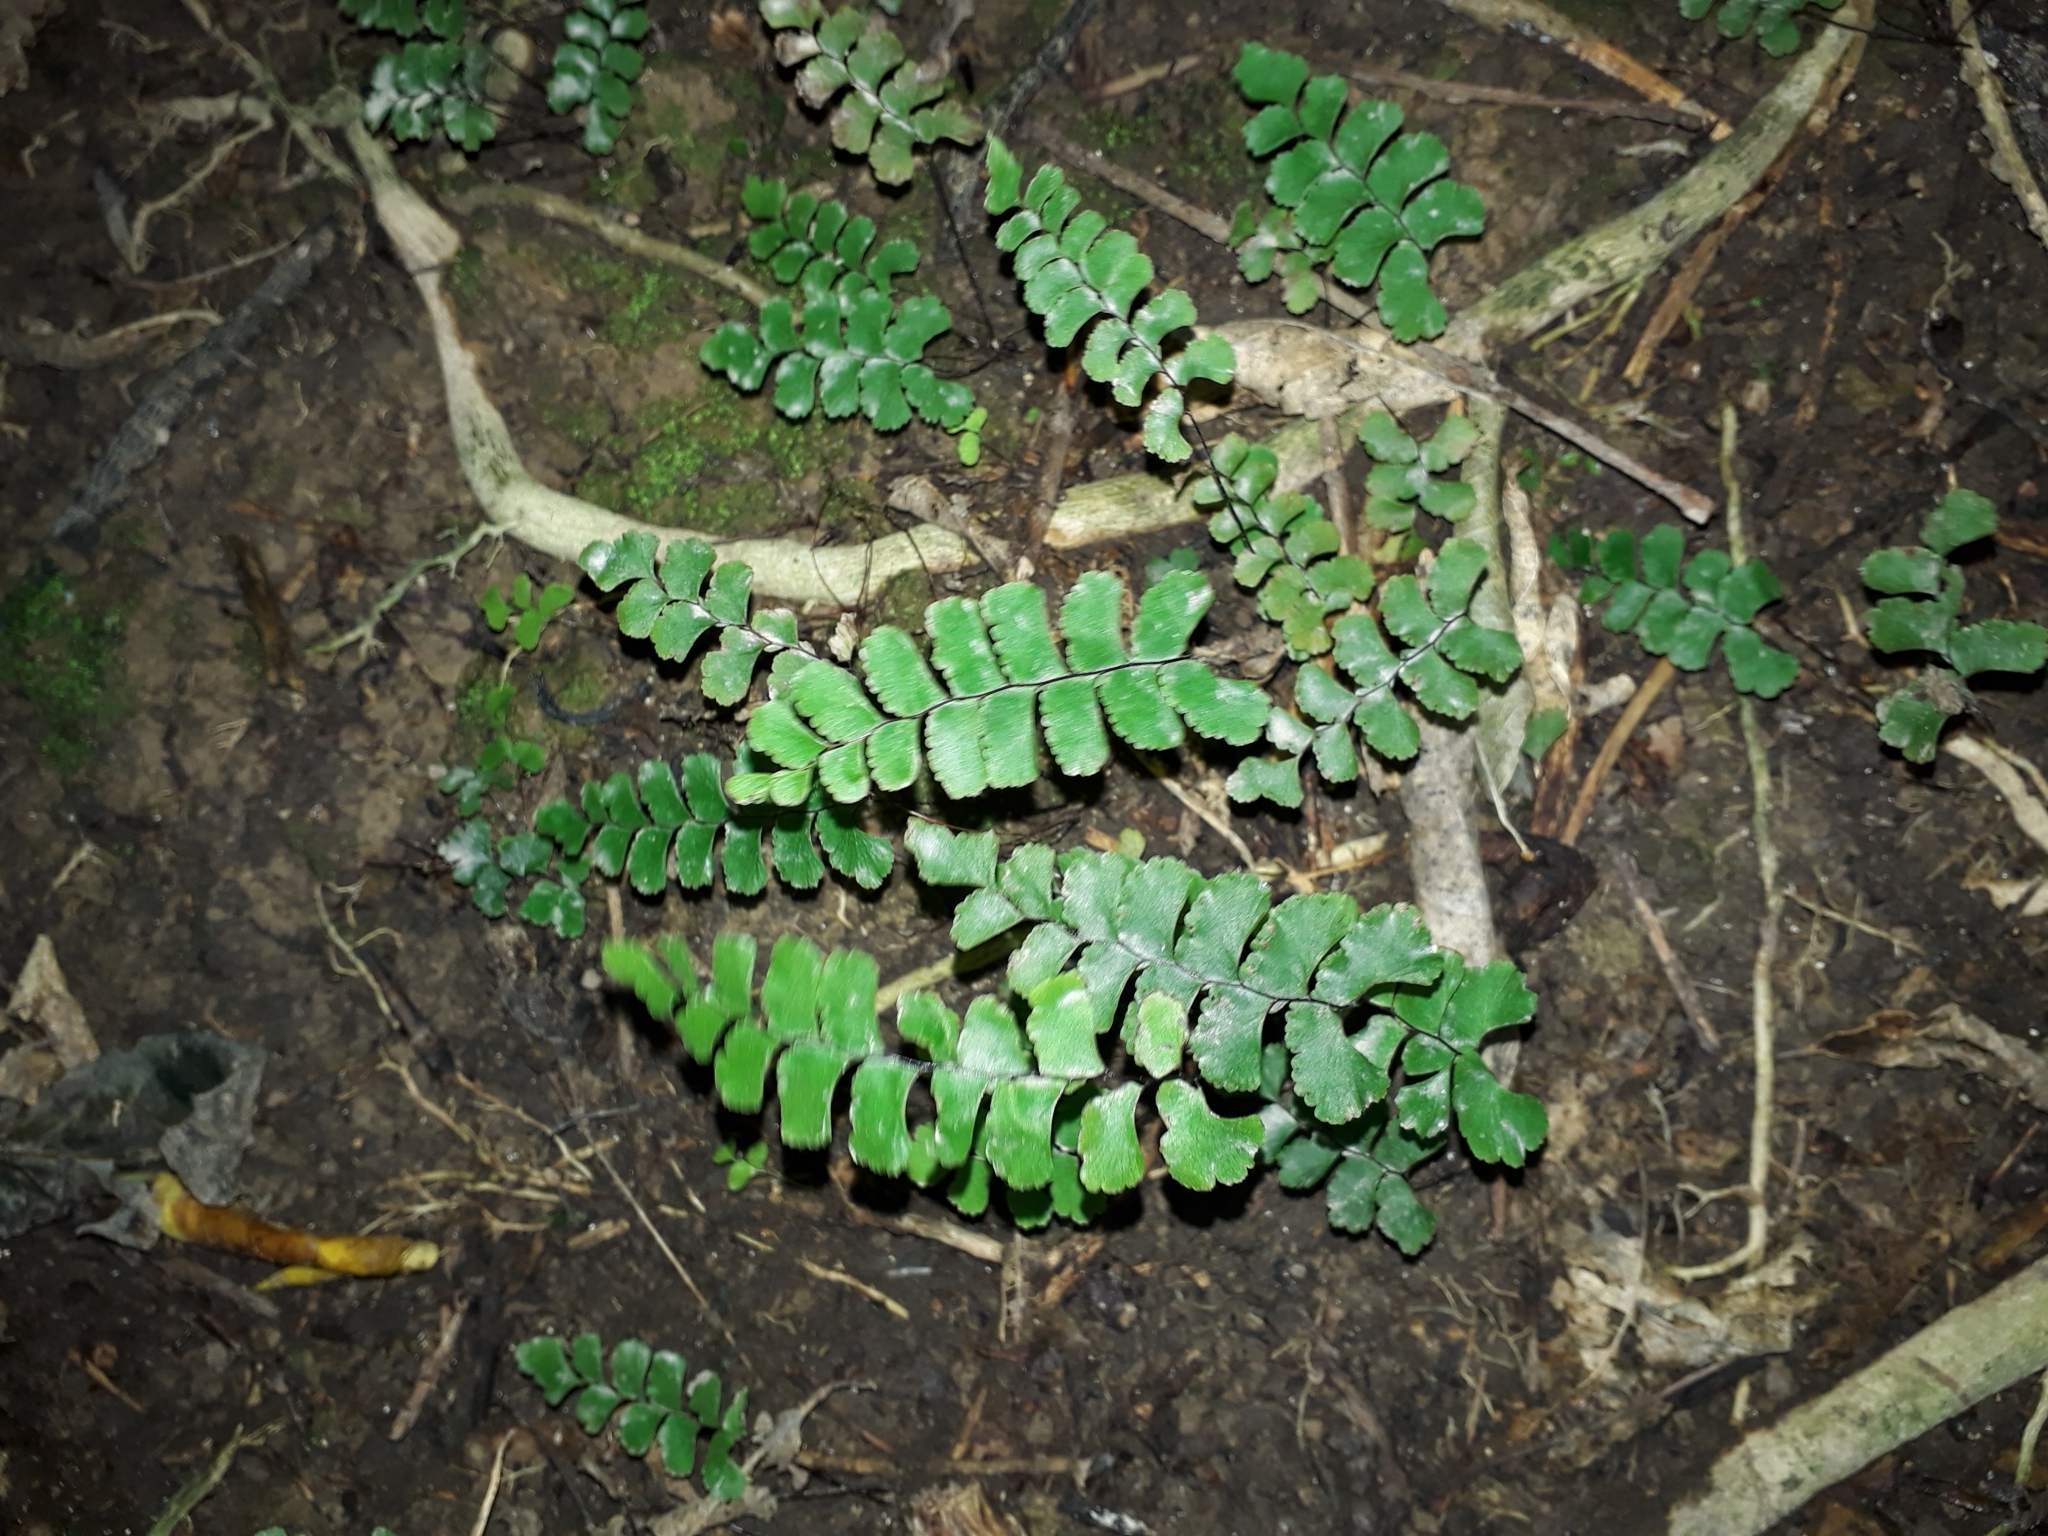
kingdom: Plantae
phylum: Tracheophyta
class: Polypodiopsida
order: Polypodiales
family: Pteridaceae
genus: Adiantum
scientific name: Adiantum diaphanum
